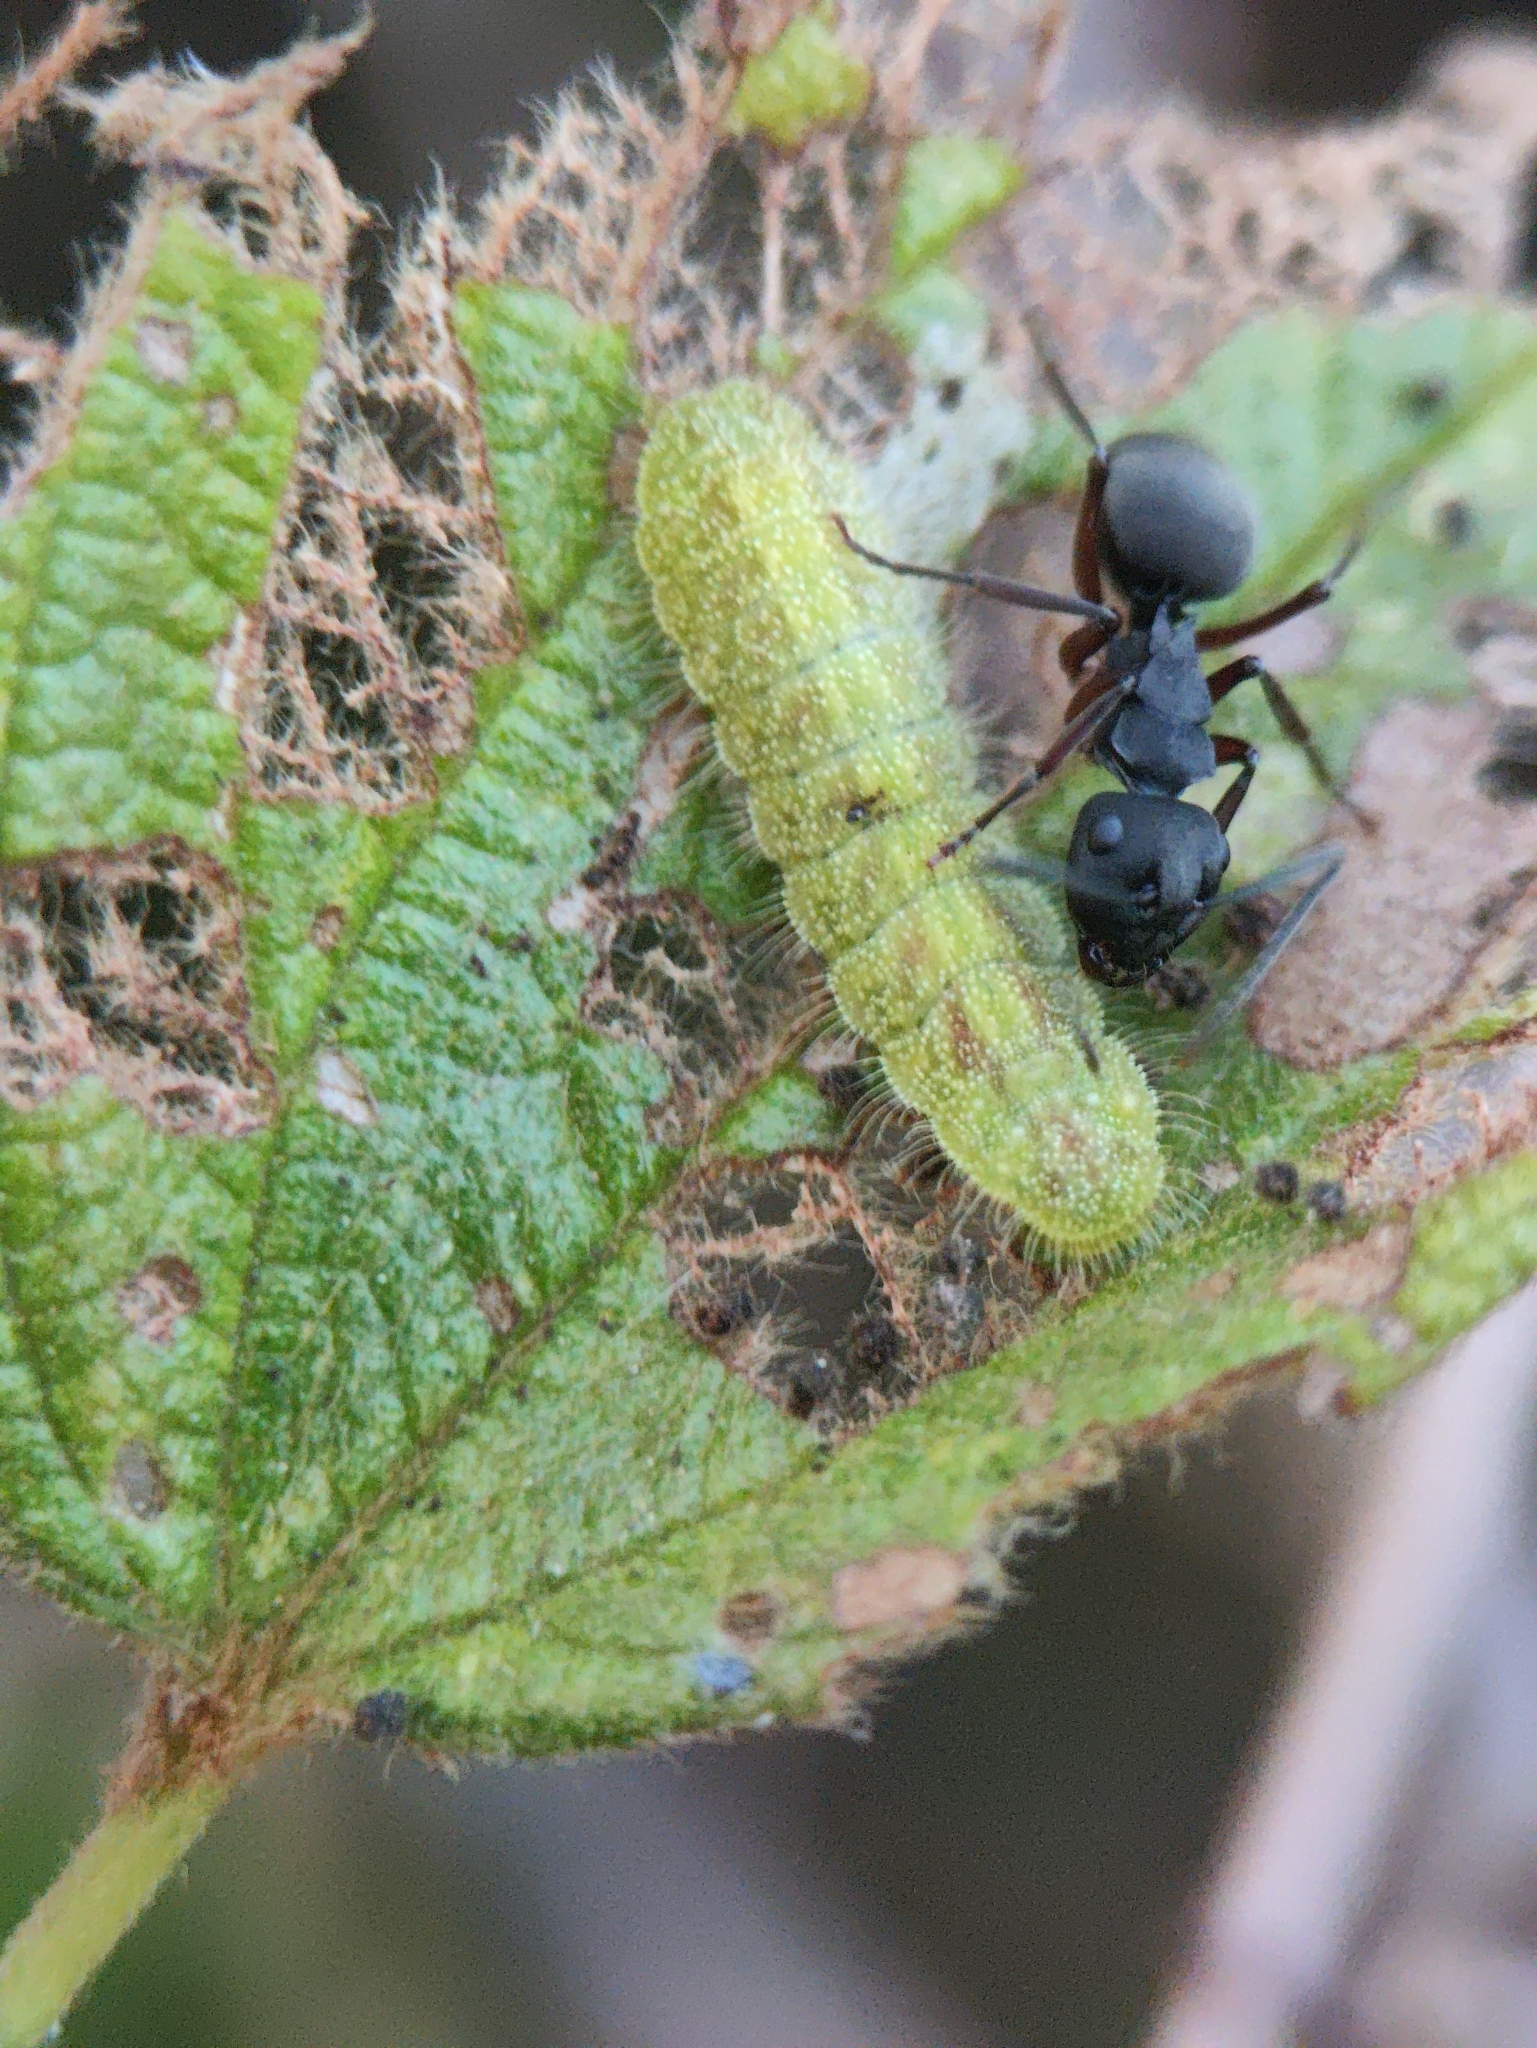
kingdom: Animalia
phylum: Arthropoda
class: Insecta
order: Hymenoptera
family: Formicidae
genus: Polyrhachis
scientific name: Polyrhachis exercita
